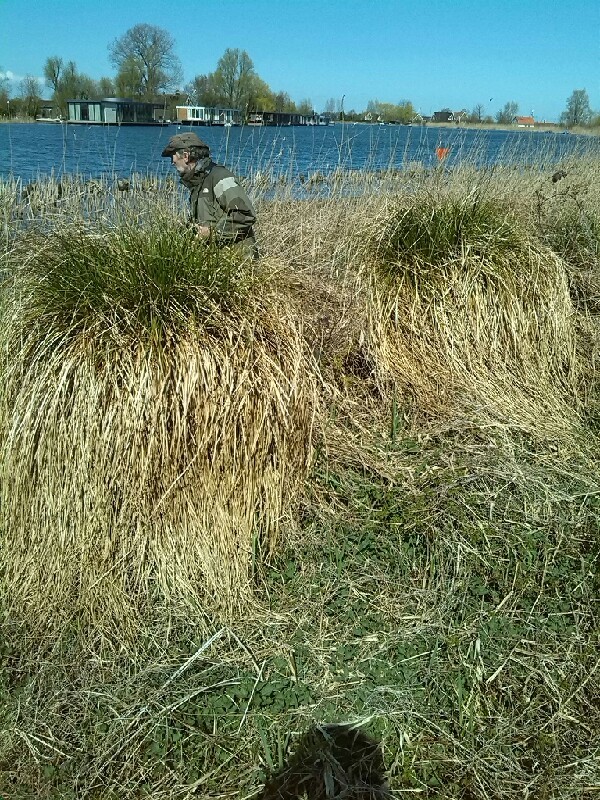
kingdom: Plantae
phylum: Tracheophyta
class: Liliopsida
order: Poales
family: Cyperaceae
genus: Carex
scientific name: Carex paniculata
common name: Greater tussock-sedge
